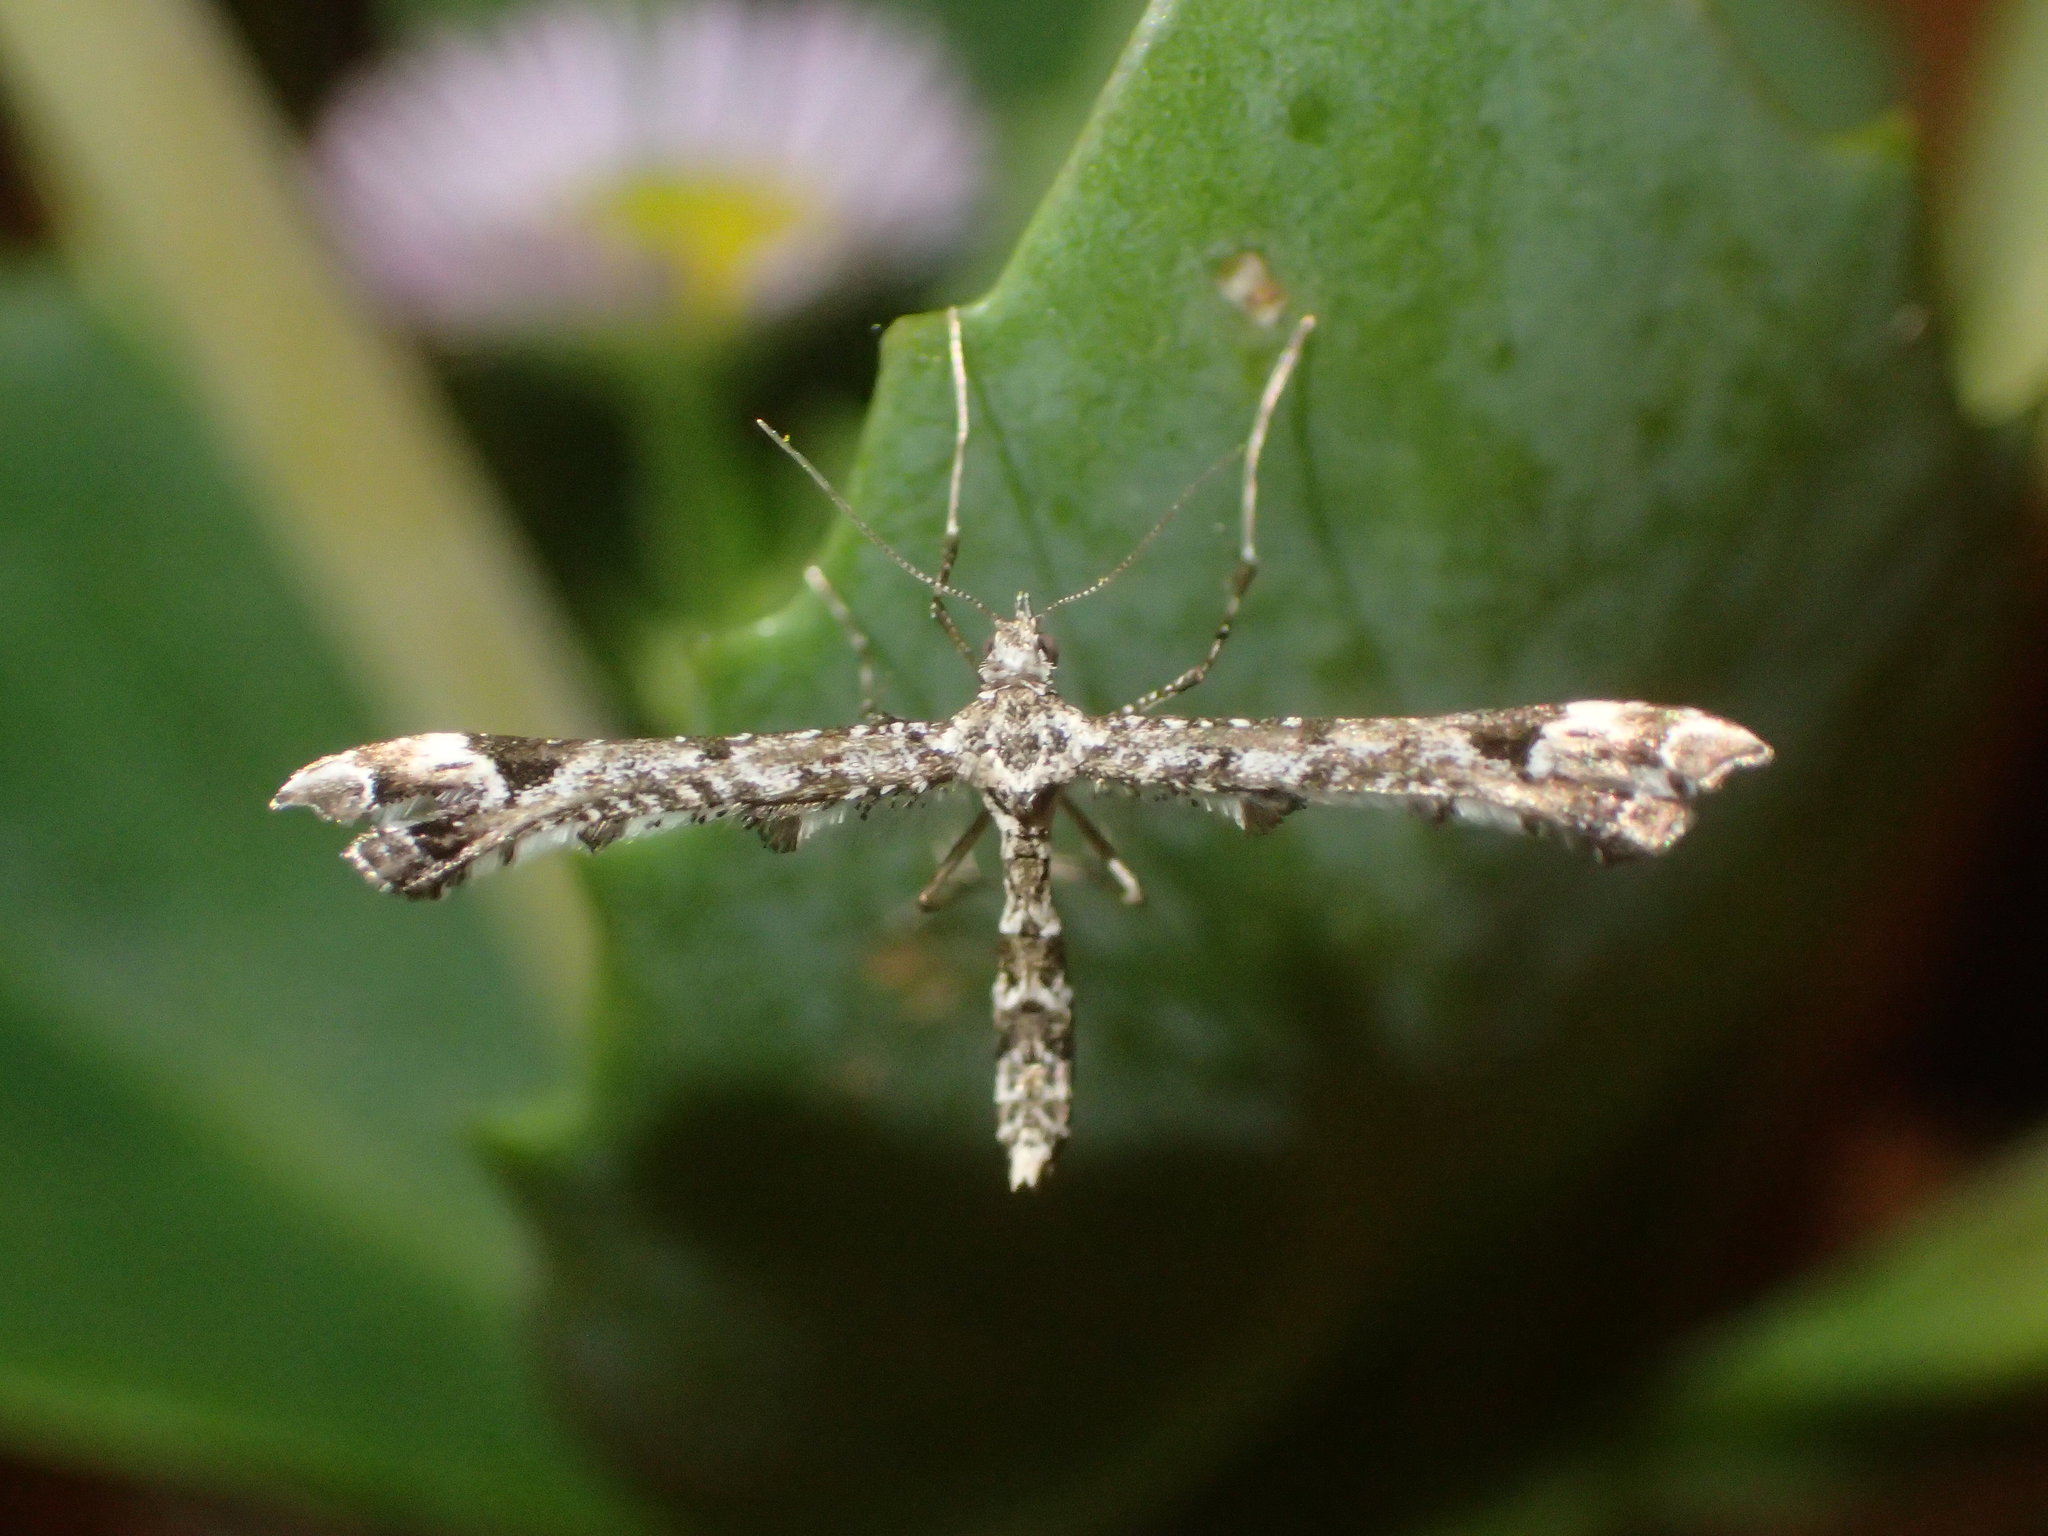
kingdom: Animalia
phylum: Arthropoda
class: Insecta
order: Lepidoptera
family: Pterophoridae
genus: Amblyptilia
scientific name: Amblyptilia pica
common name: Geranium plume moth
